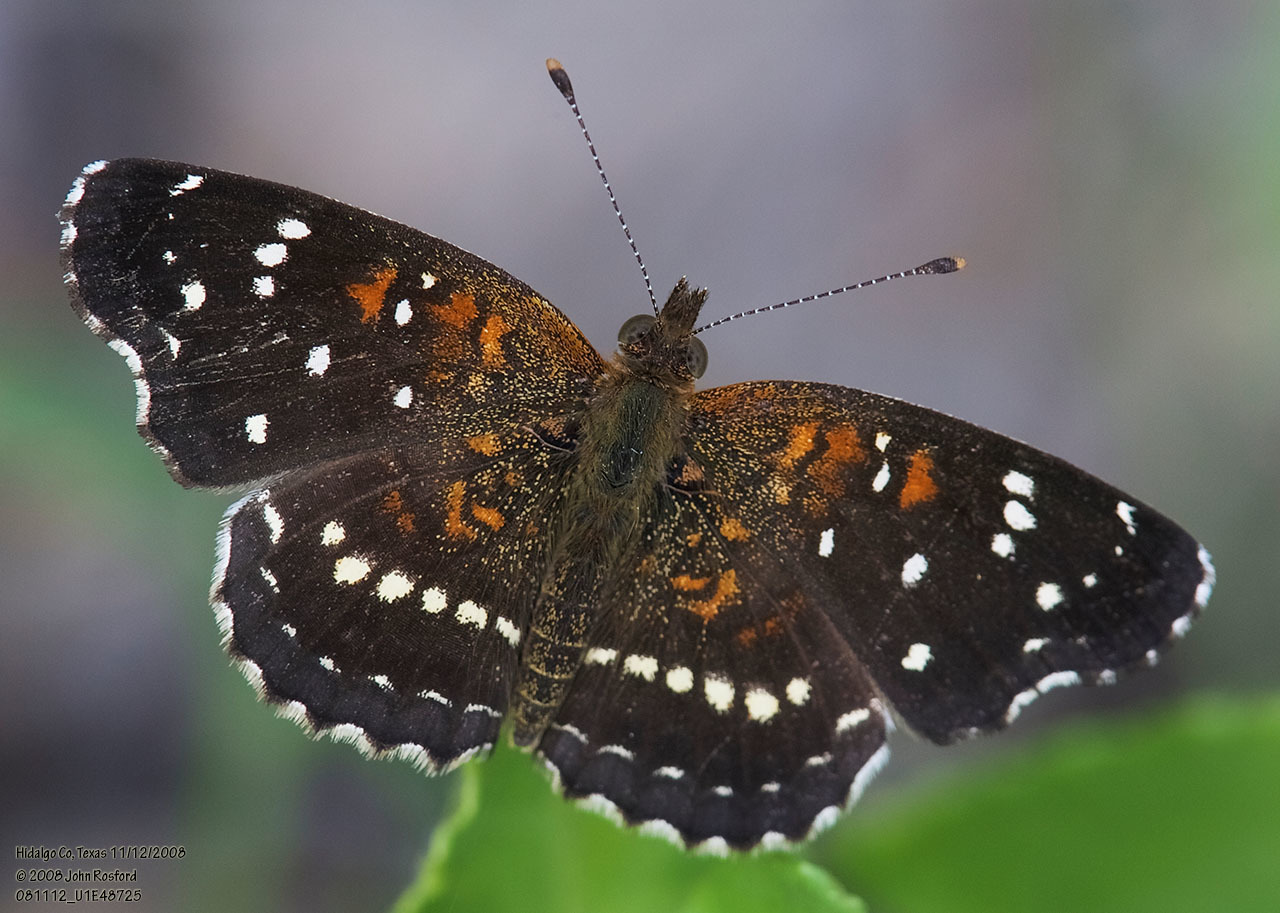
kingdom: Animalia
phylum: Arthropoda
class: Insecta
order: Lepidoptera
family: Nymphalidae
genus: Anthanassa
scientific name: Anthanassa texana
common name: Texan crescent
